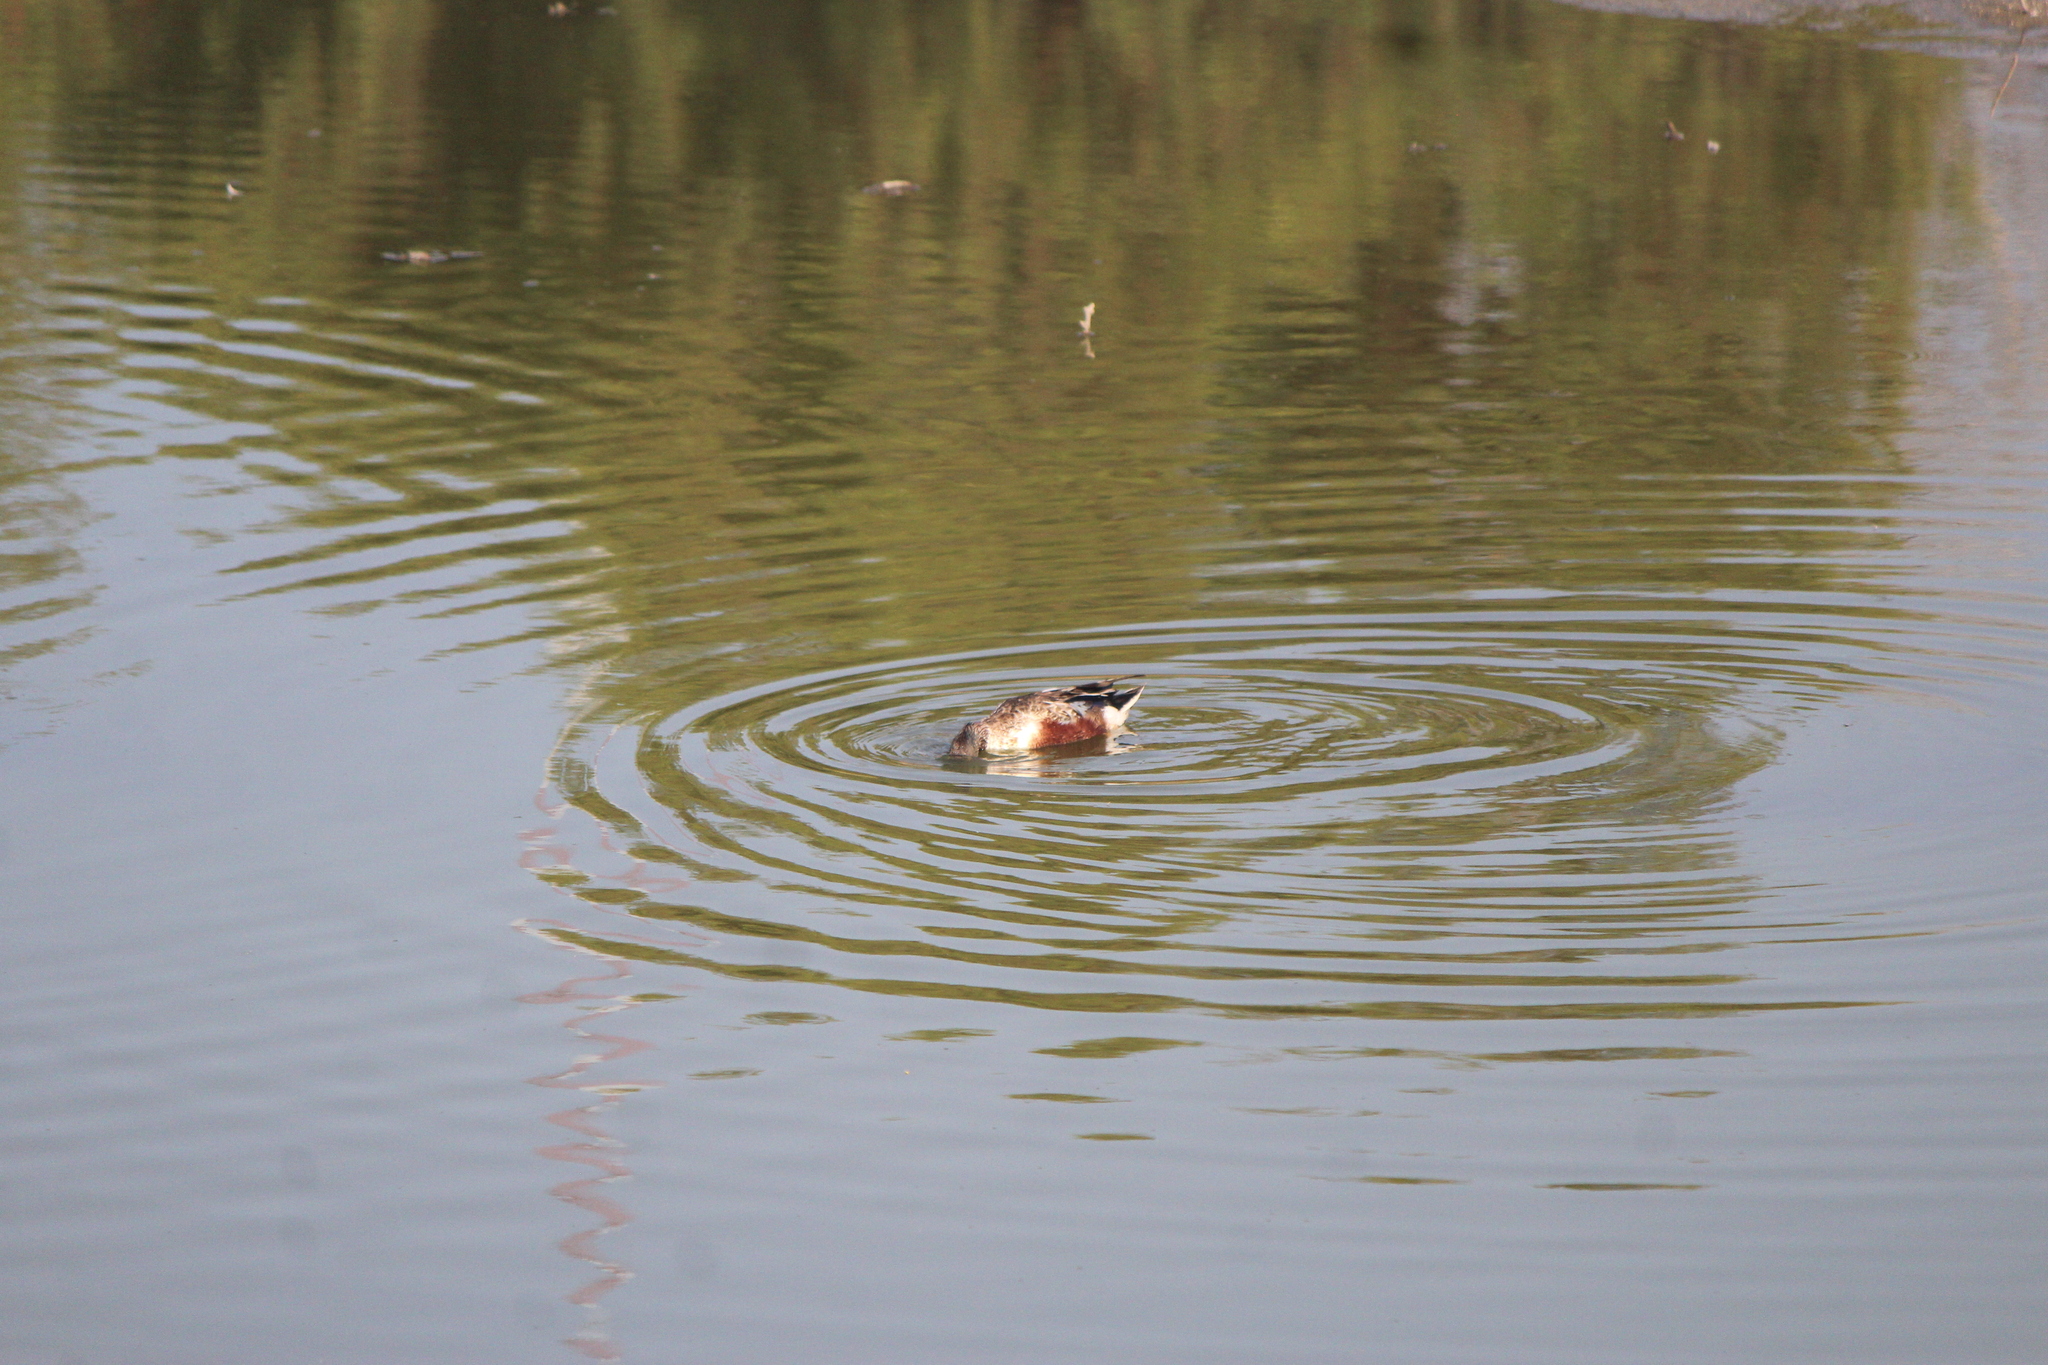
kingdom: Animalia
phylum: Chordata
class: Aves
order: Anseriformes
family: Anatidae
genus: Spatula
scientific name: Spatula clypeata
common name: Northern shoveler
